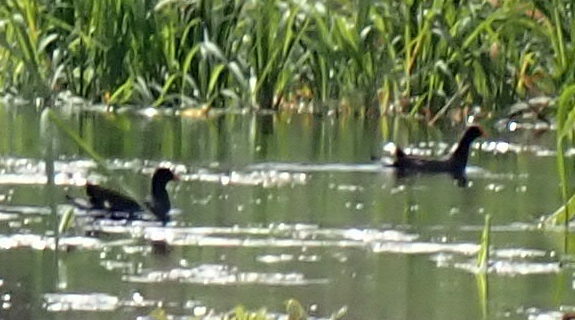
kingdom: Animalia
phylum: Chordata
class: Aves
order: Gruiformes
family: Rallidae
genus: Gallinula
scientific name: Gallinula chloropus
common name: Common moorhen
